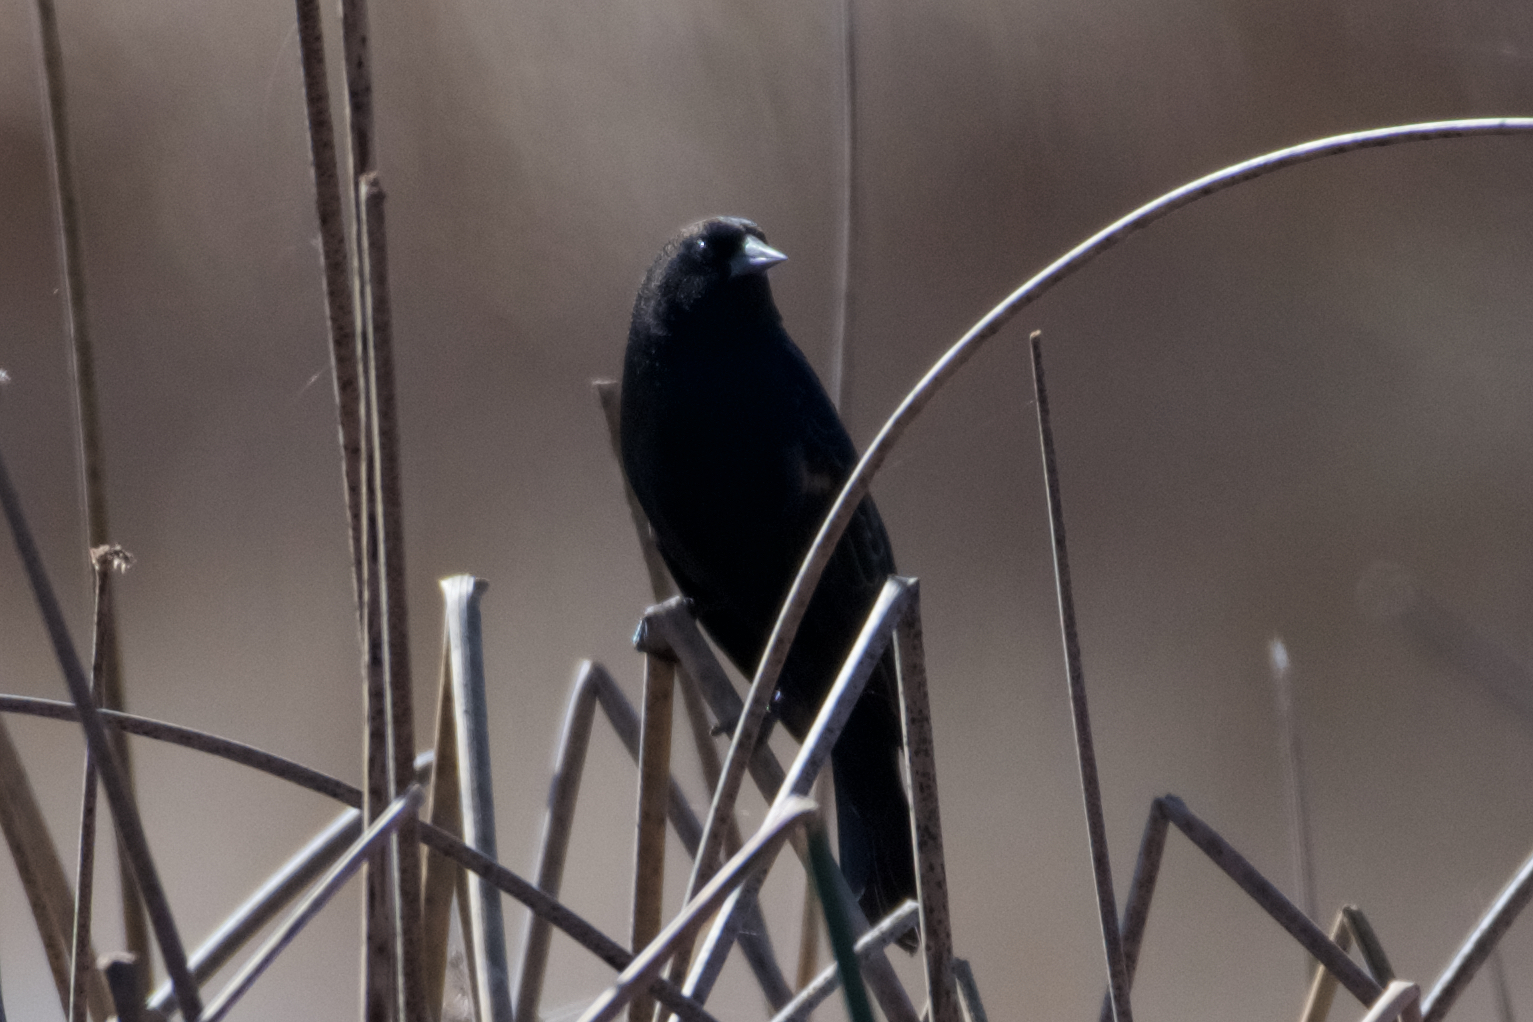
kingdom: Animalia
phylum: Chordata
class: Aves
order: Passeriformes
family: Icteridae
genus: Agelaius
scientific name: Agelaius phoeniceus
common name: Red-winged blackbird
